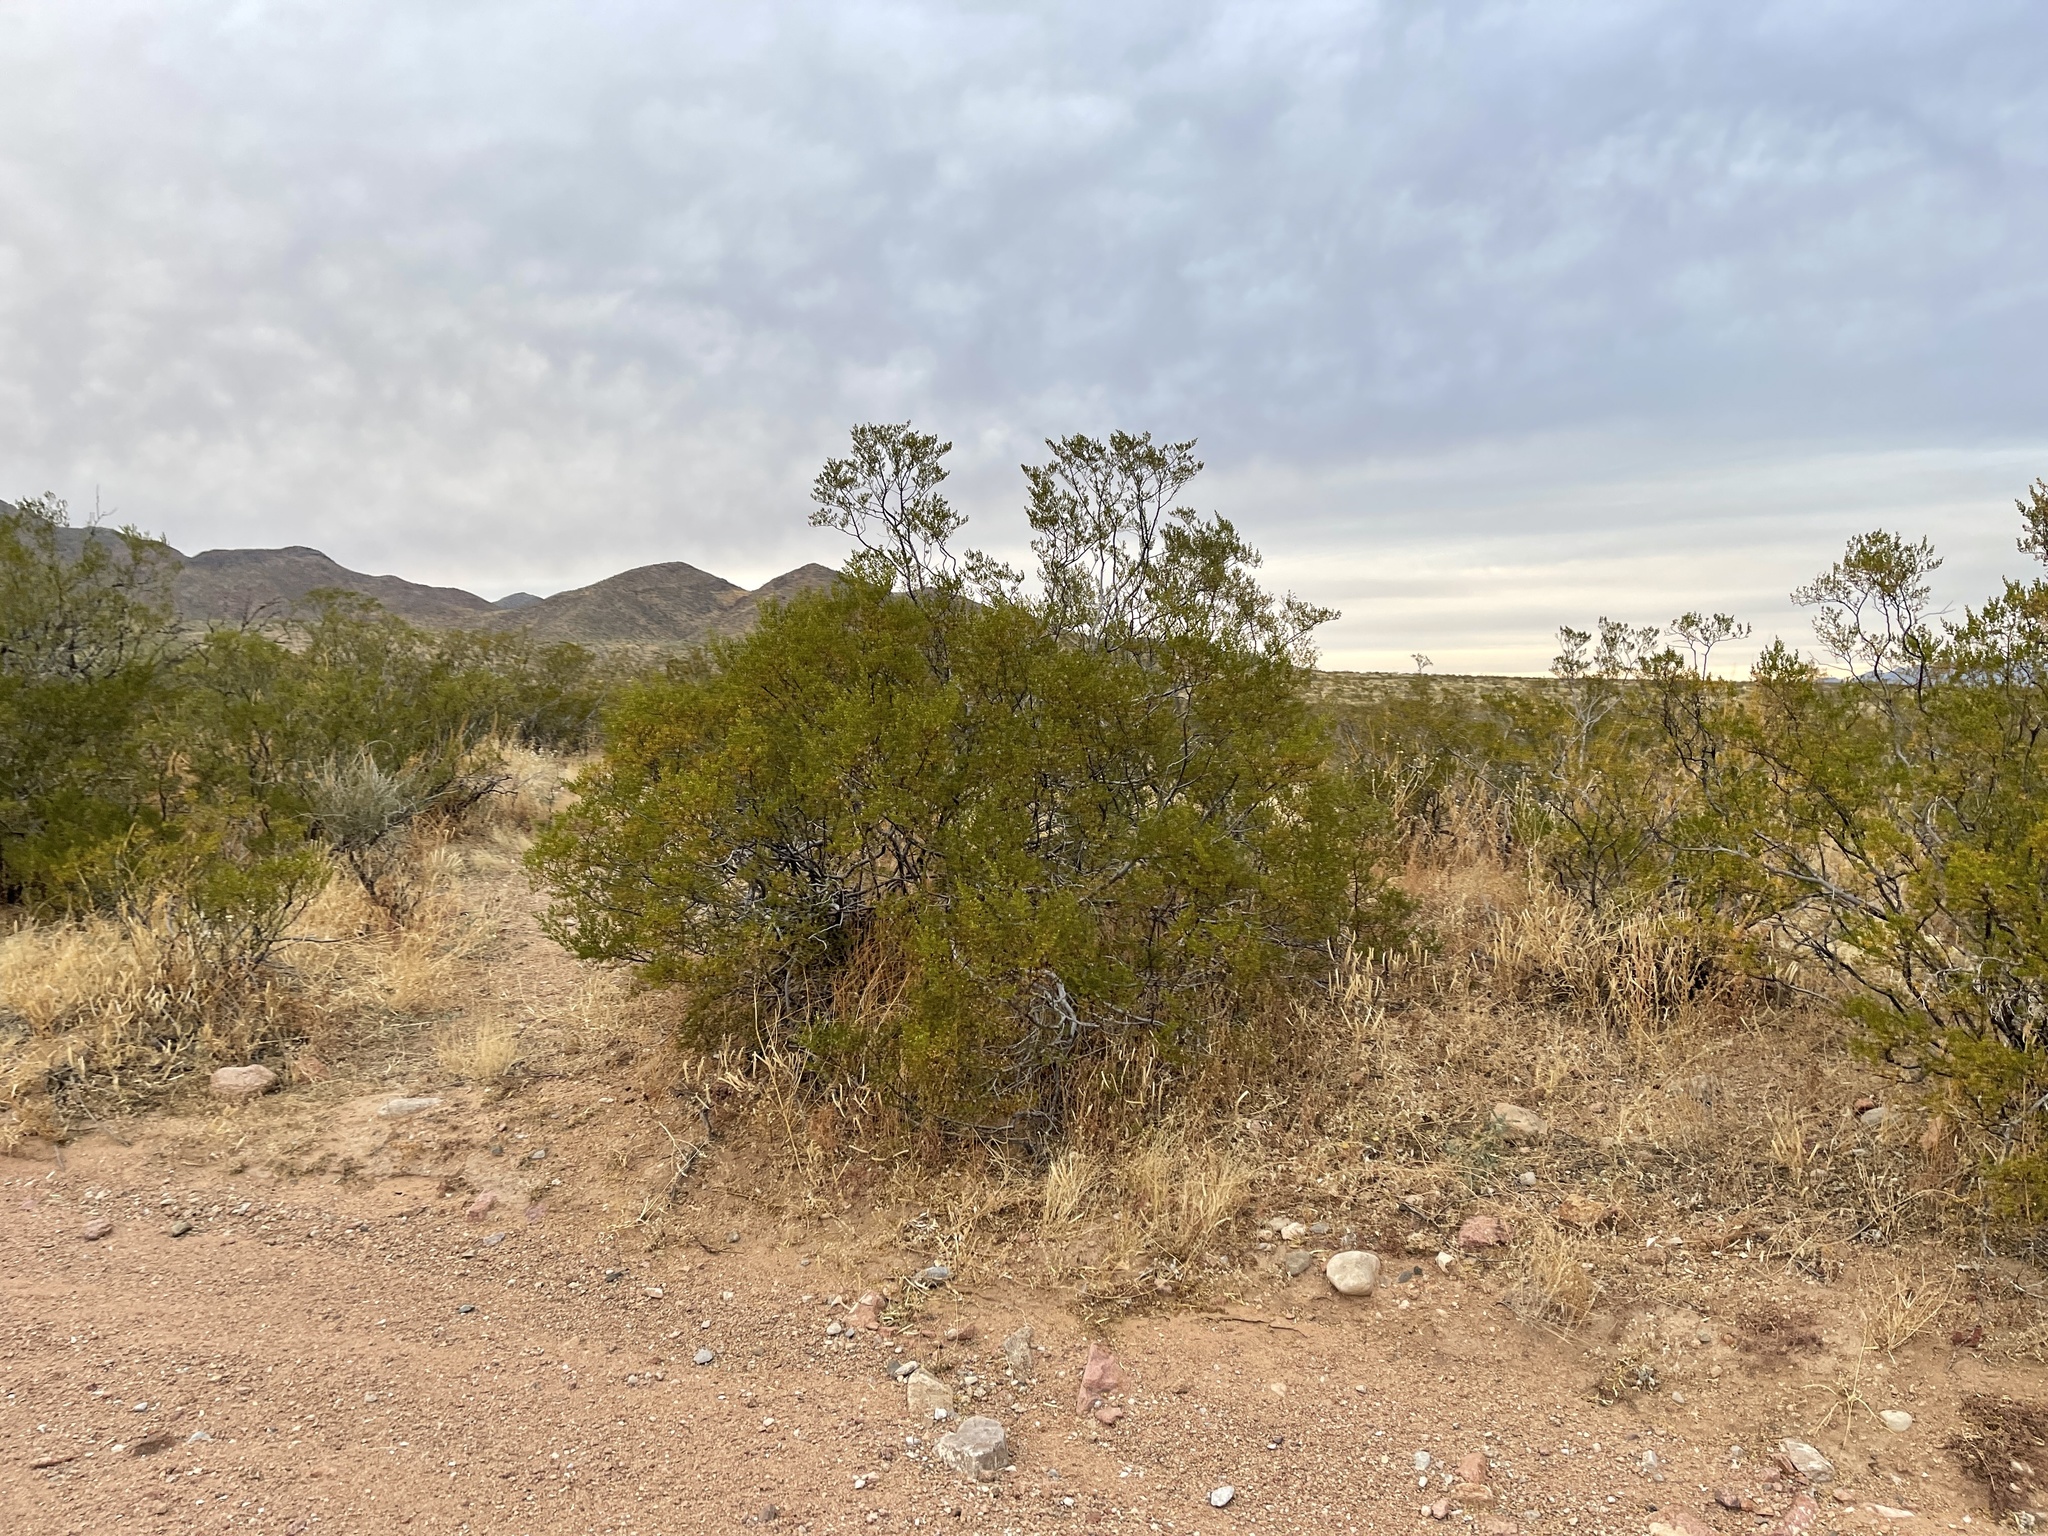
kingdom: Plantae
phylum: Tracheophyta
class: Magnoliopsida
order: Zygophyllales
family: Zygophyllaceae
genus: Larrea
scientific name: Larrea tridentata
